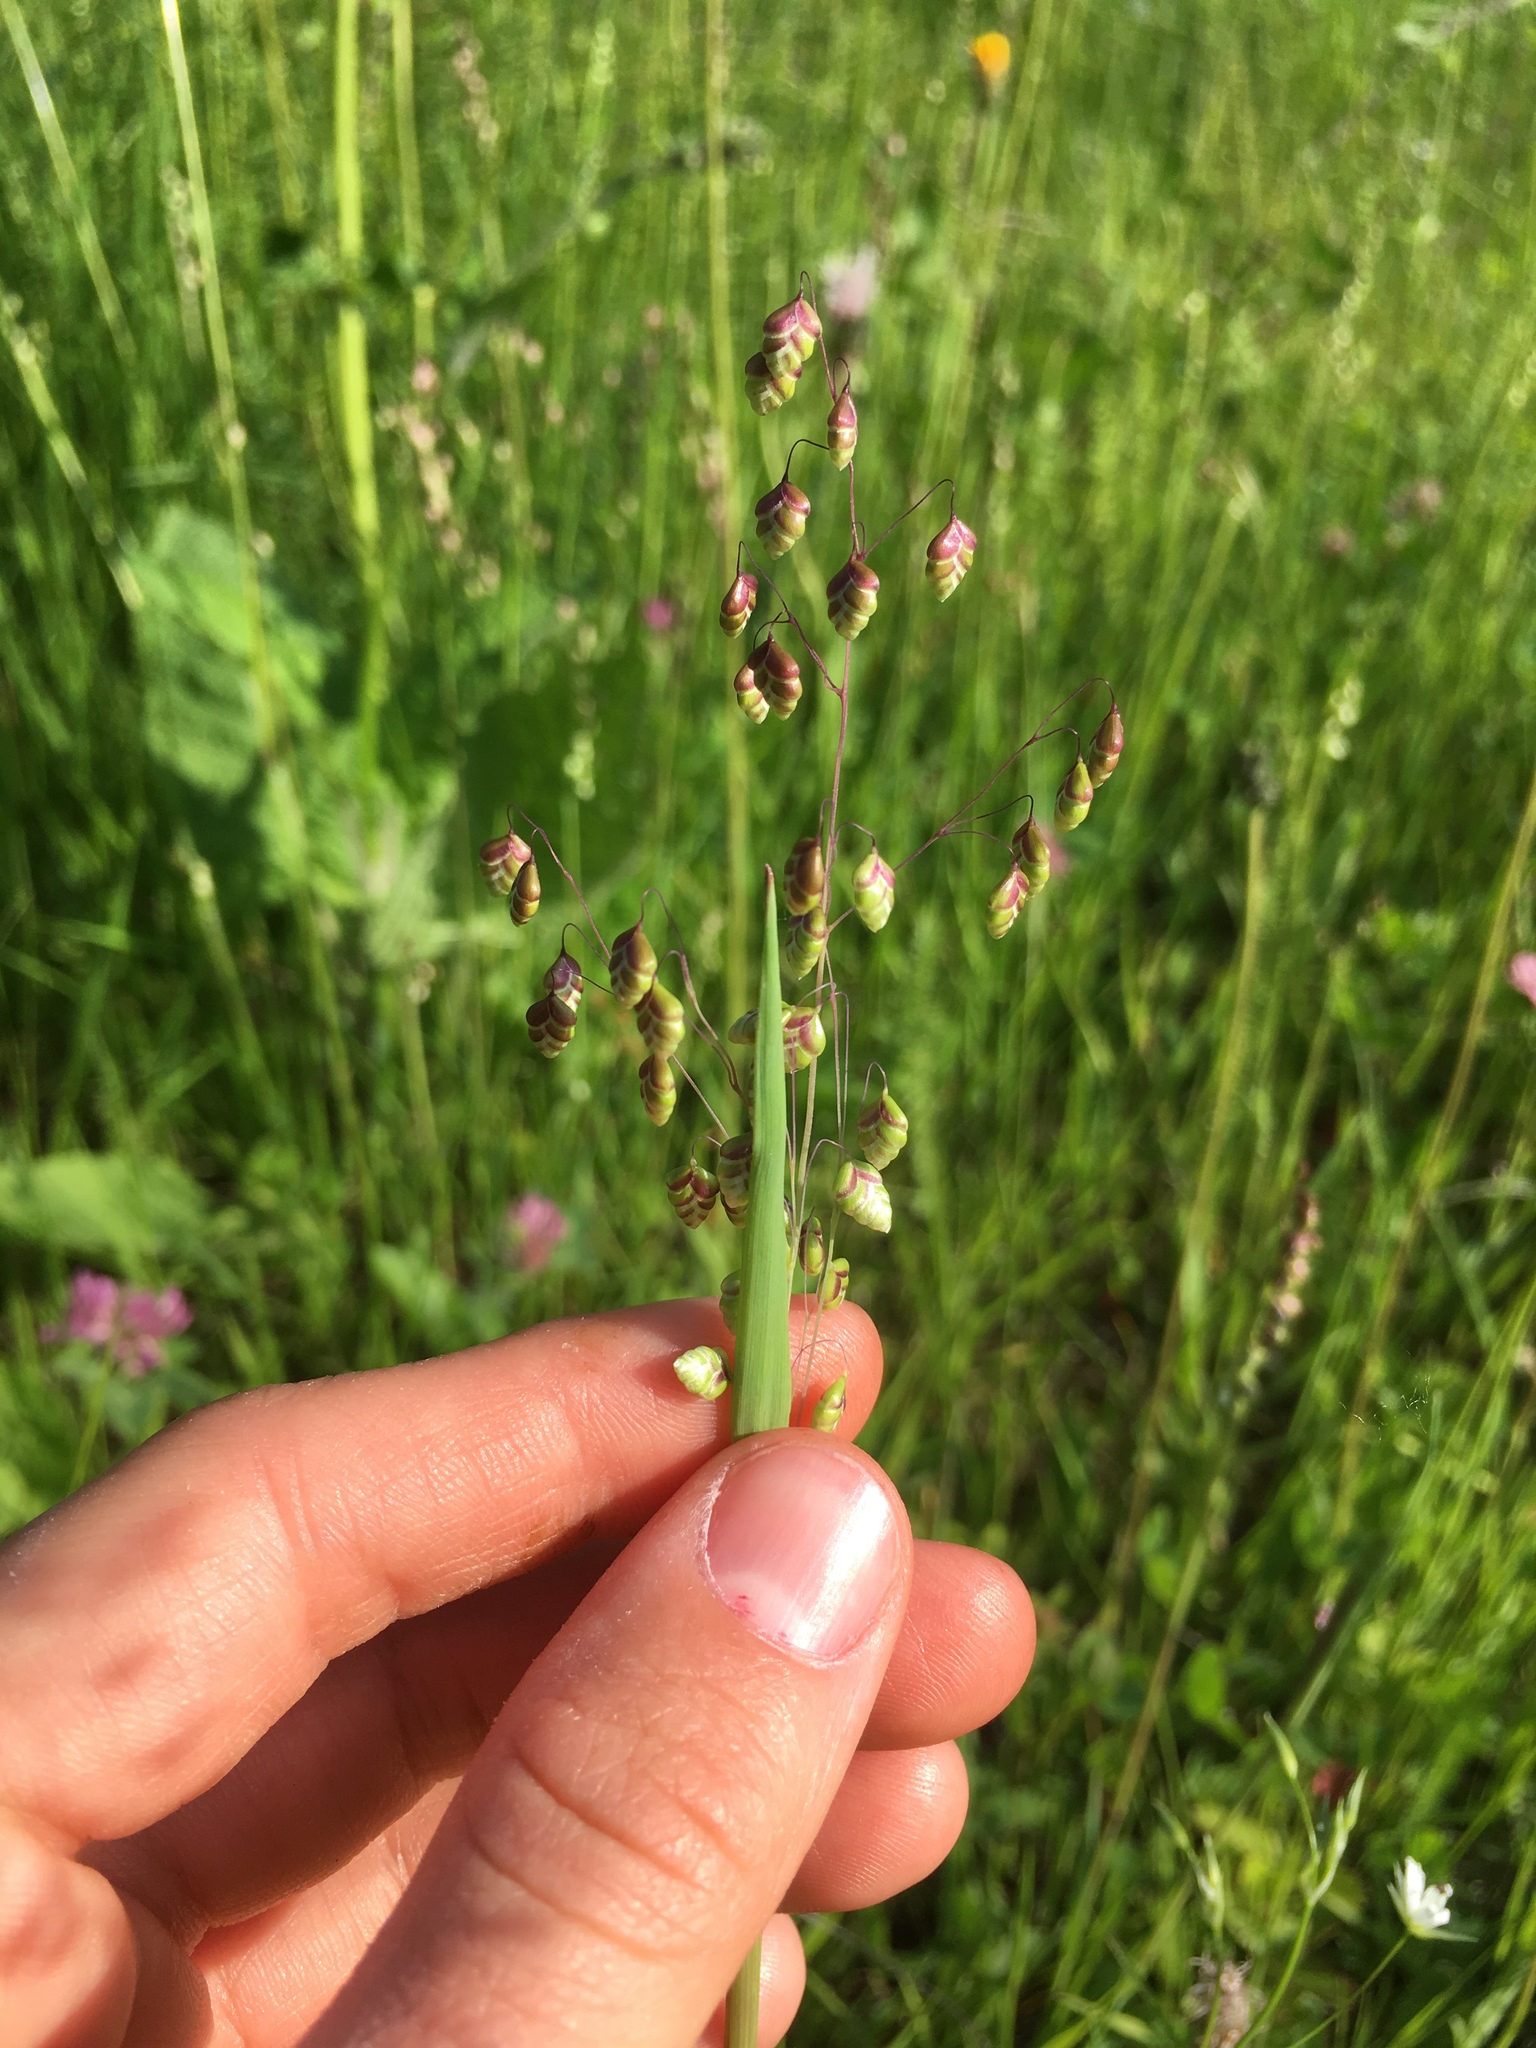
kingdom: Plantae
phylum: Tracheophyta
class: Liliopsida
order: Poales
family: Poaceae
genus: Briza
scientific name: Briza media
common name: Quaking grass
